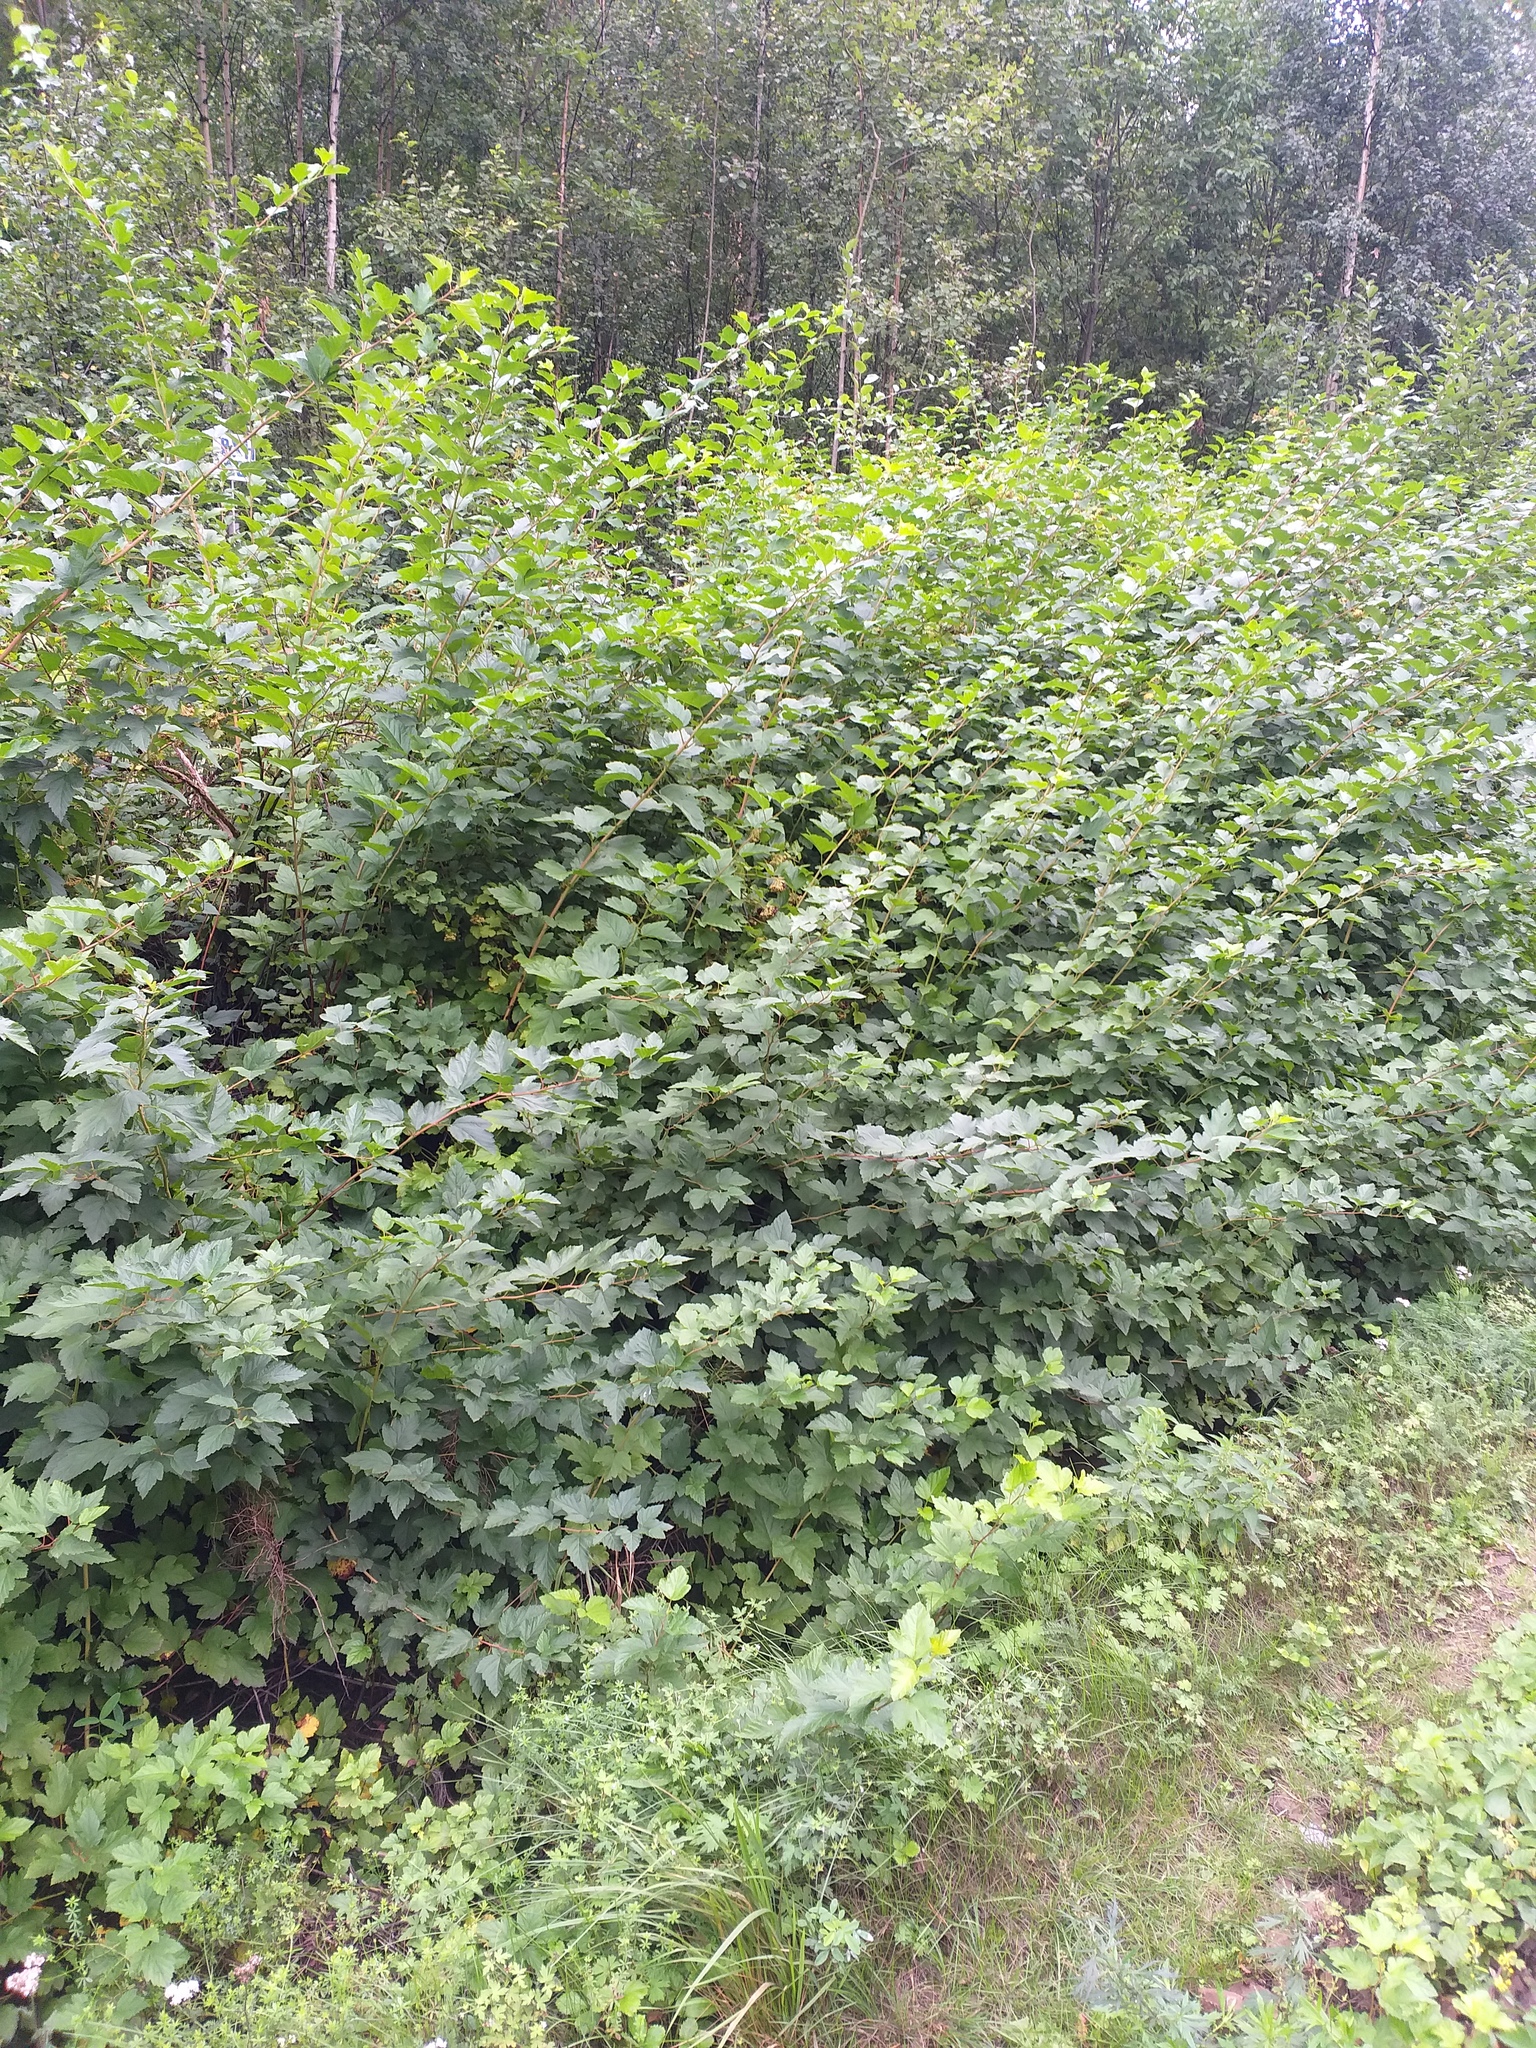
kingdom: Plantae
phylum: Tracheophyta
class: Magnoliopsida
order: Rosales
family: Rosaceae
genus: Physocarpus
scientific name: Physocarpus opulifolius
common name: Ninebark
